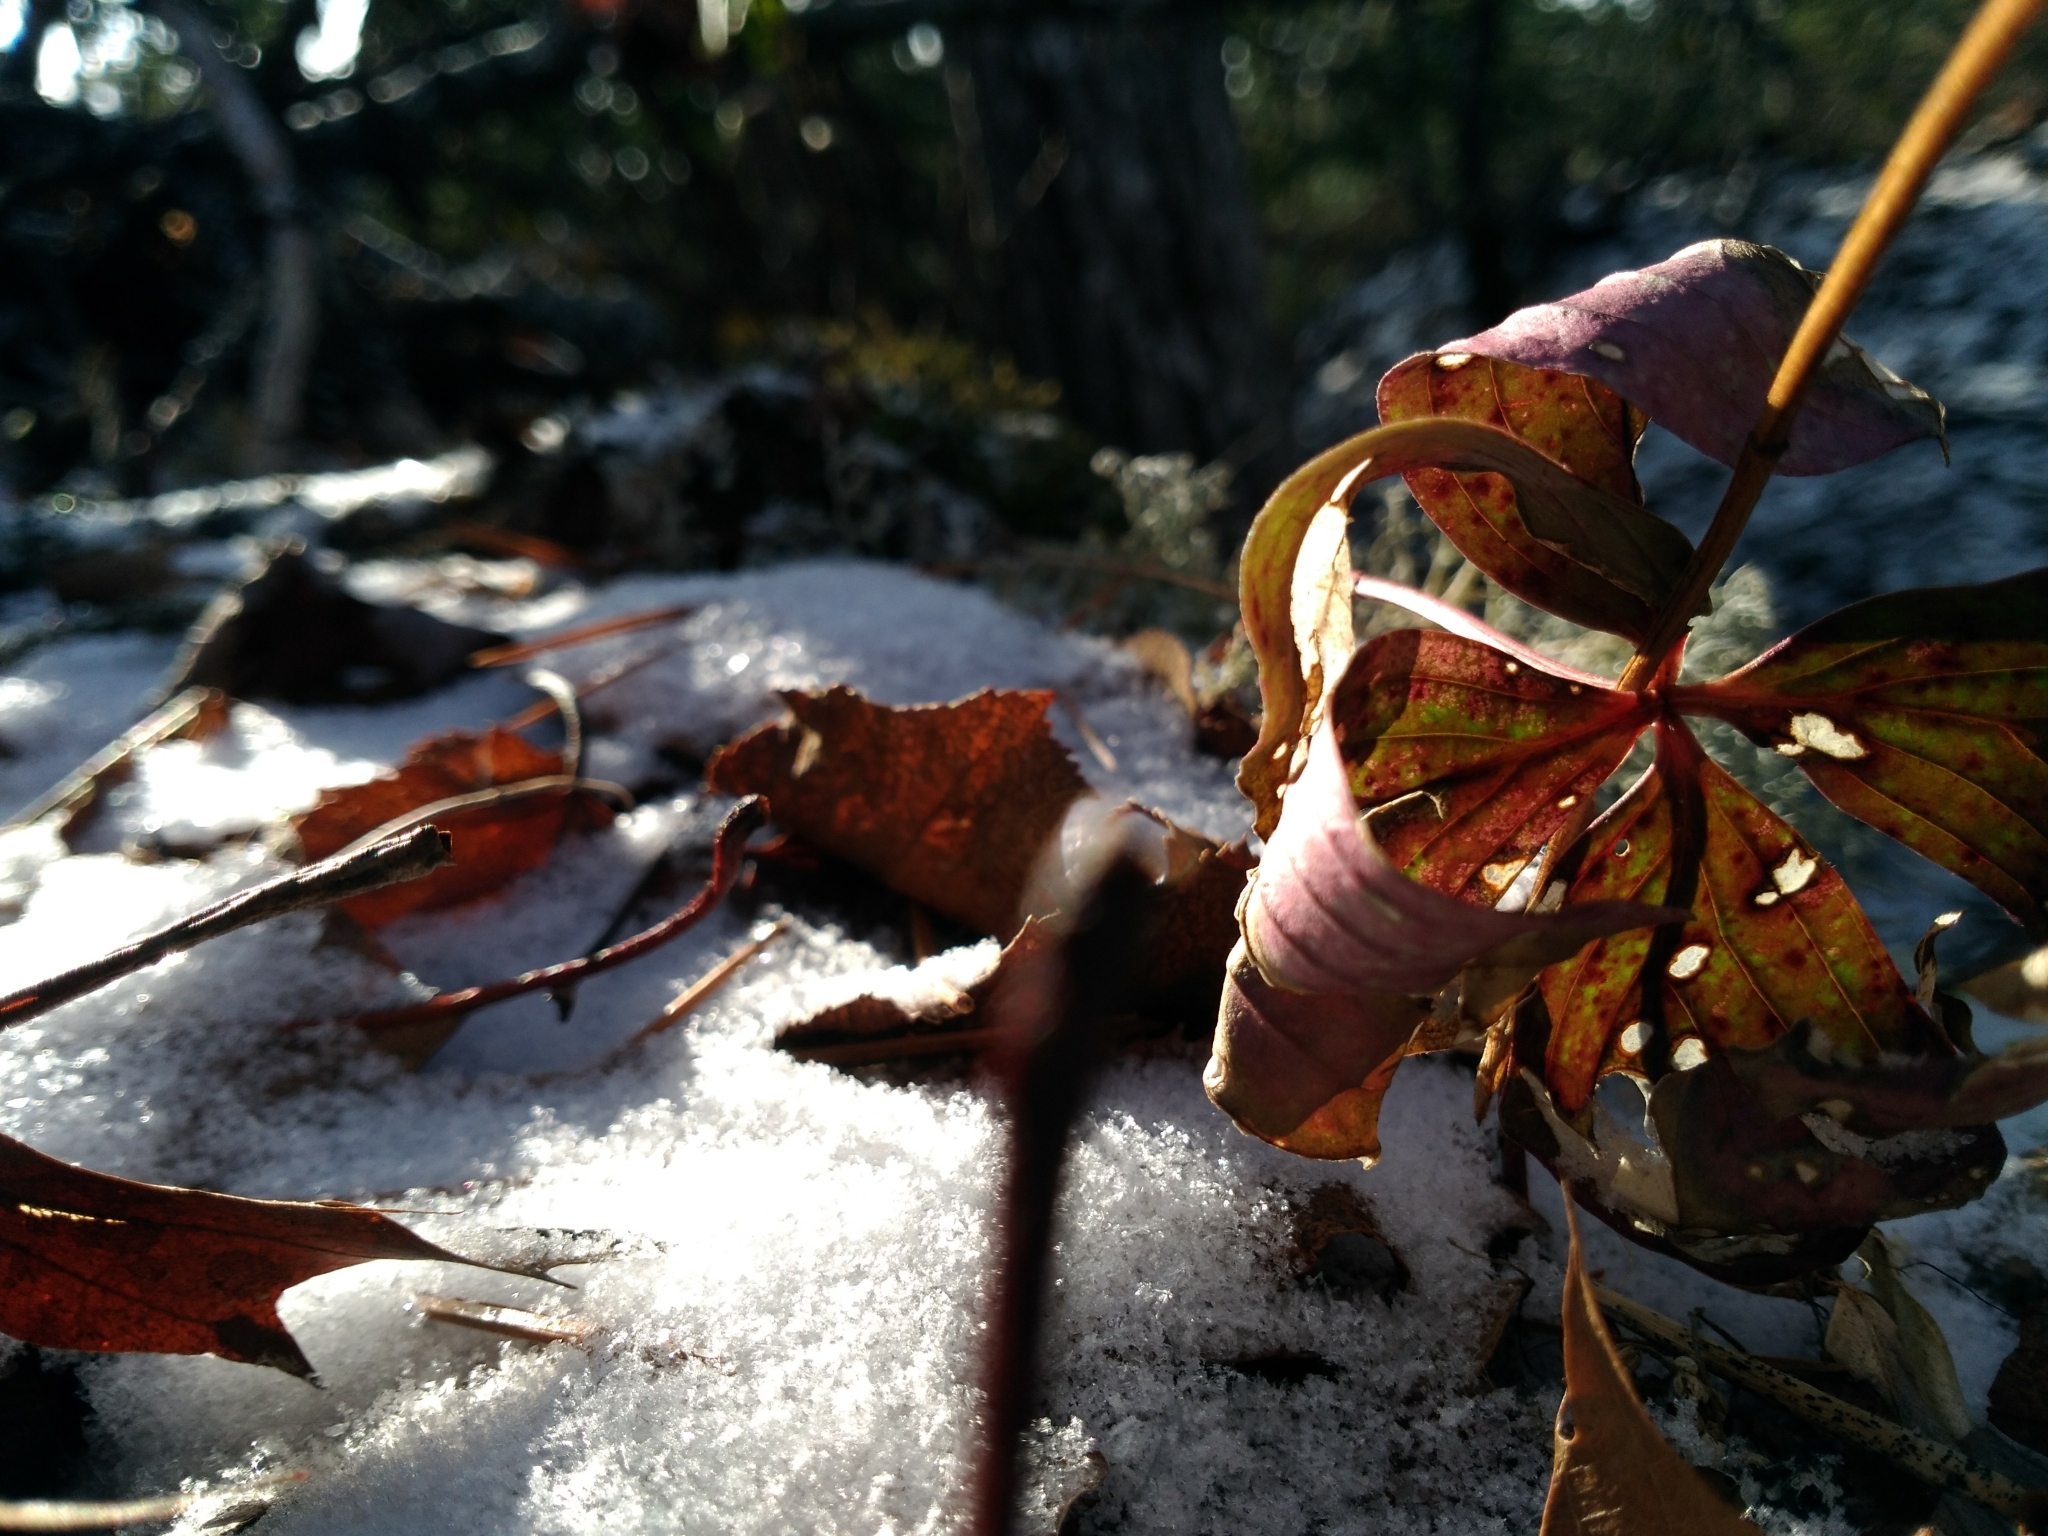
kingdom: Plantae
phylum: Tracheophyta
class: Magnoliopsida
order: Cornales
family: Cornaceae
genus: Cornus
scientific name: Cornus canadensis
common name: Creeping dogwood
